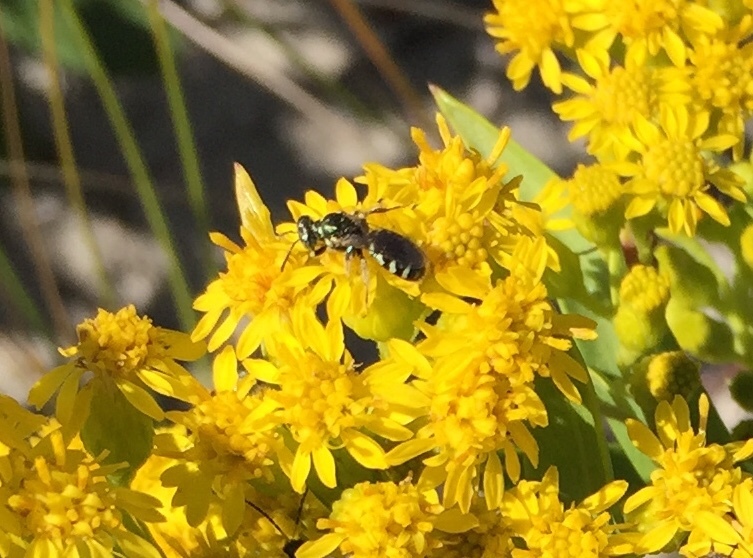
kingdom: Animalia
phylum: Arthropoda
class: Insecta
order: Hymenoptera
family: Andrenidae
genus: Perdita
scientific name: Perdita octomaculata
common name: Eight-spotted miner bee
